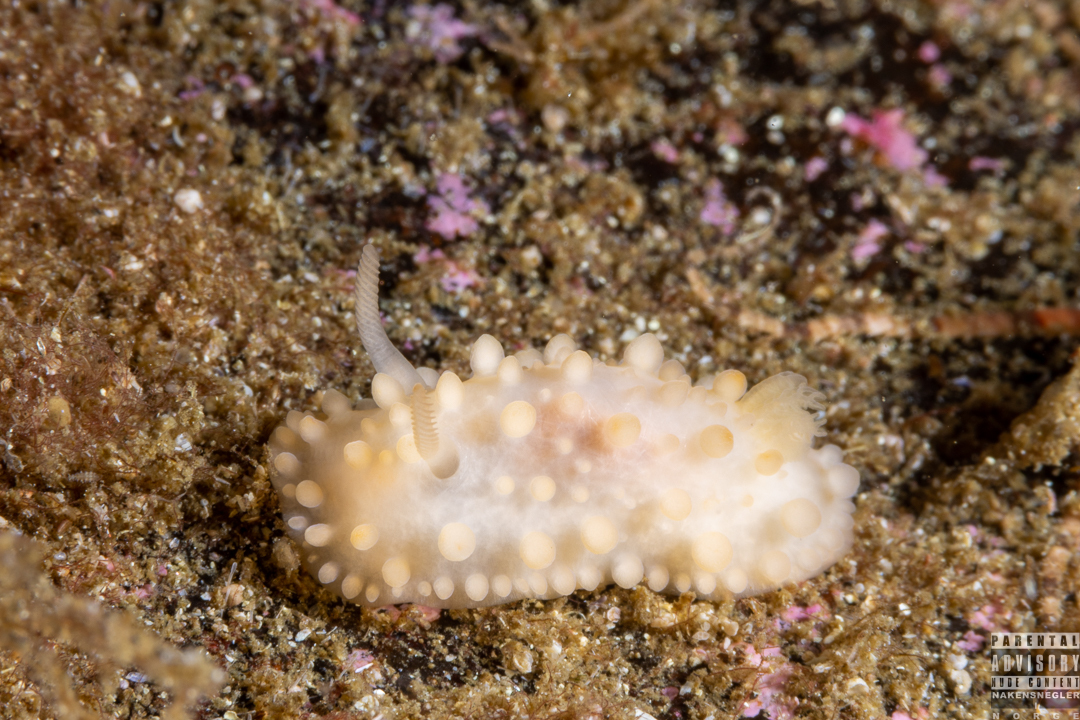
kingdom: Animalia
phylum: Mollusca
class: Gastropoda
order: Nudibranchia
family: Onchidorididae
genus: Adalaria
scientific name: Adalaria loveni
